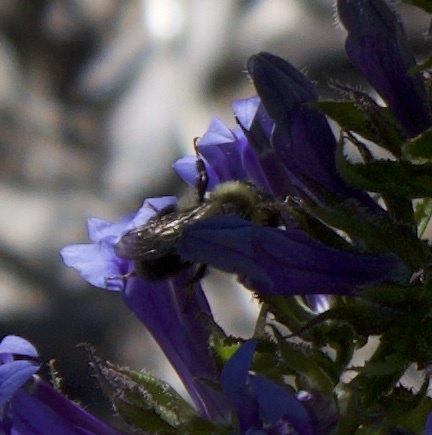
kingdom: Animalia
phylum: Arthropoda
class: Insecta
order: Hymenoptera
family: Apidae
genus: Bombus
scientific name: Bombus impatiens
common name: Common eastern bumble bee
